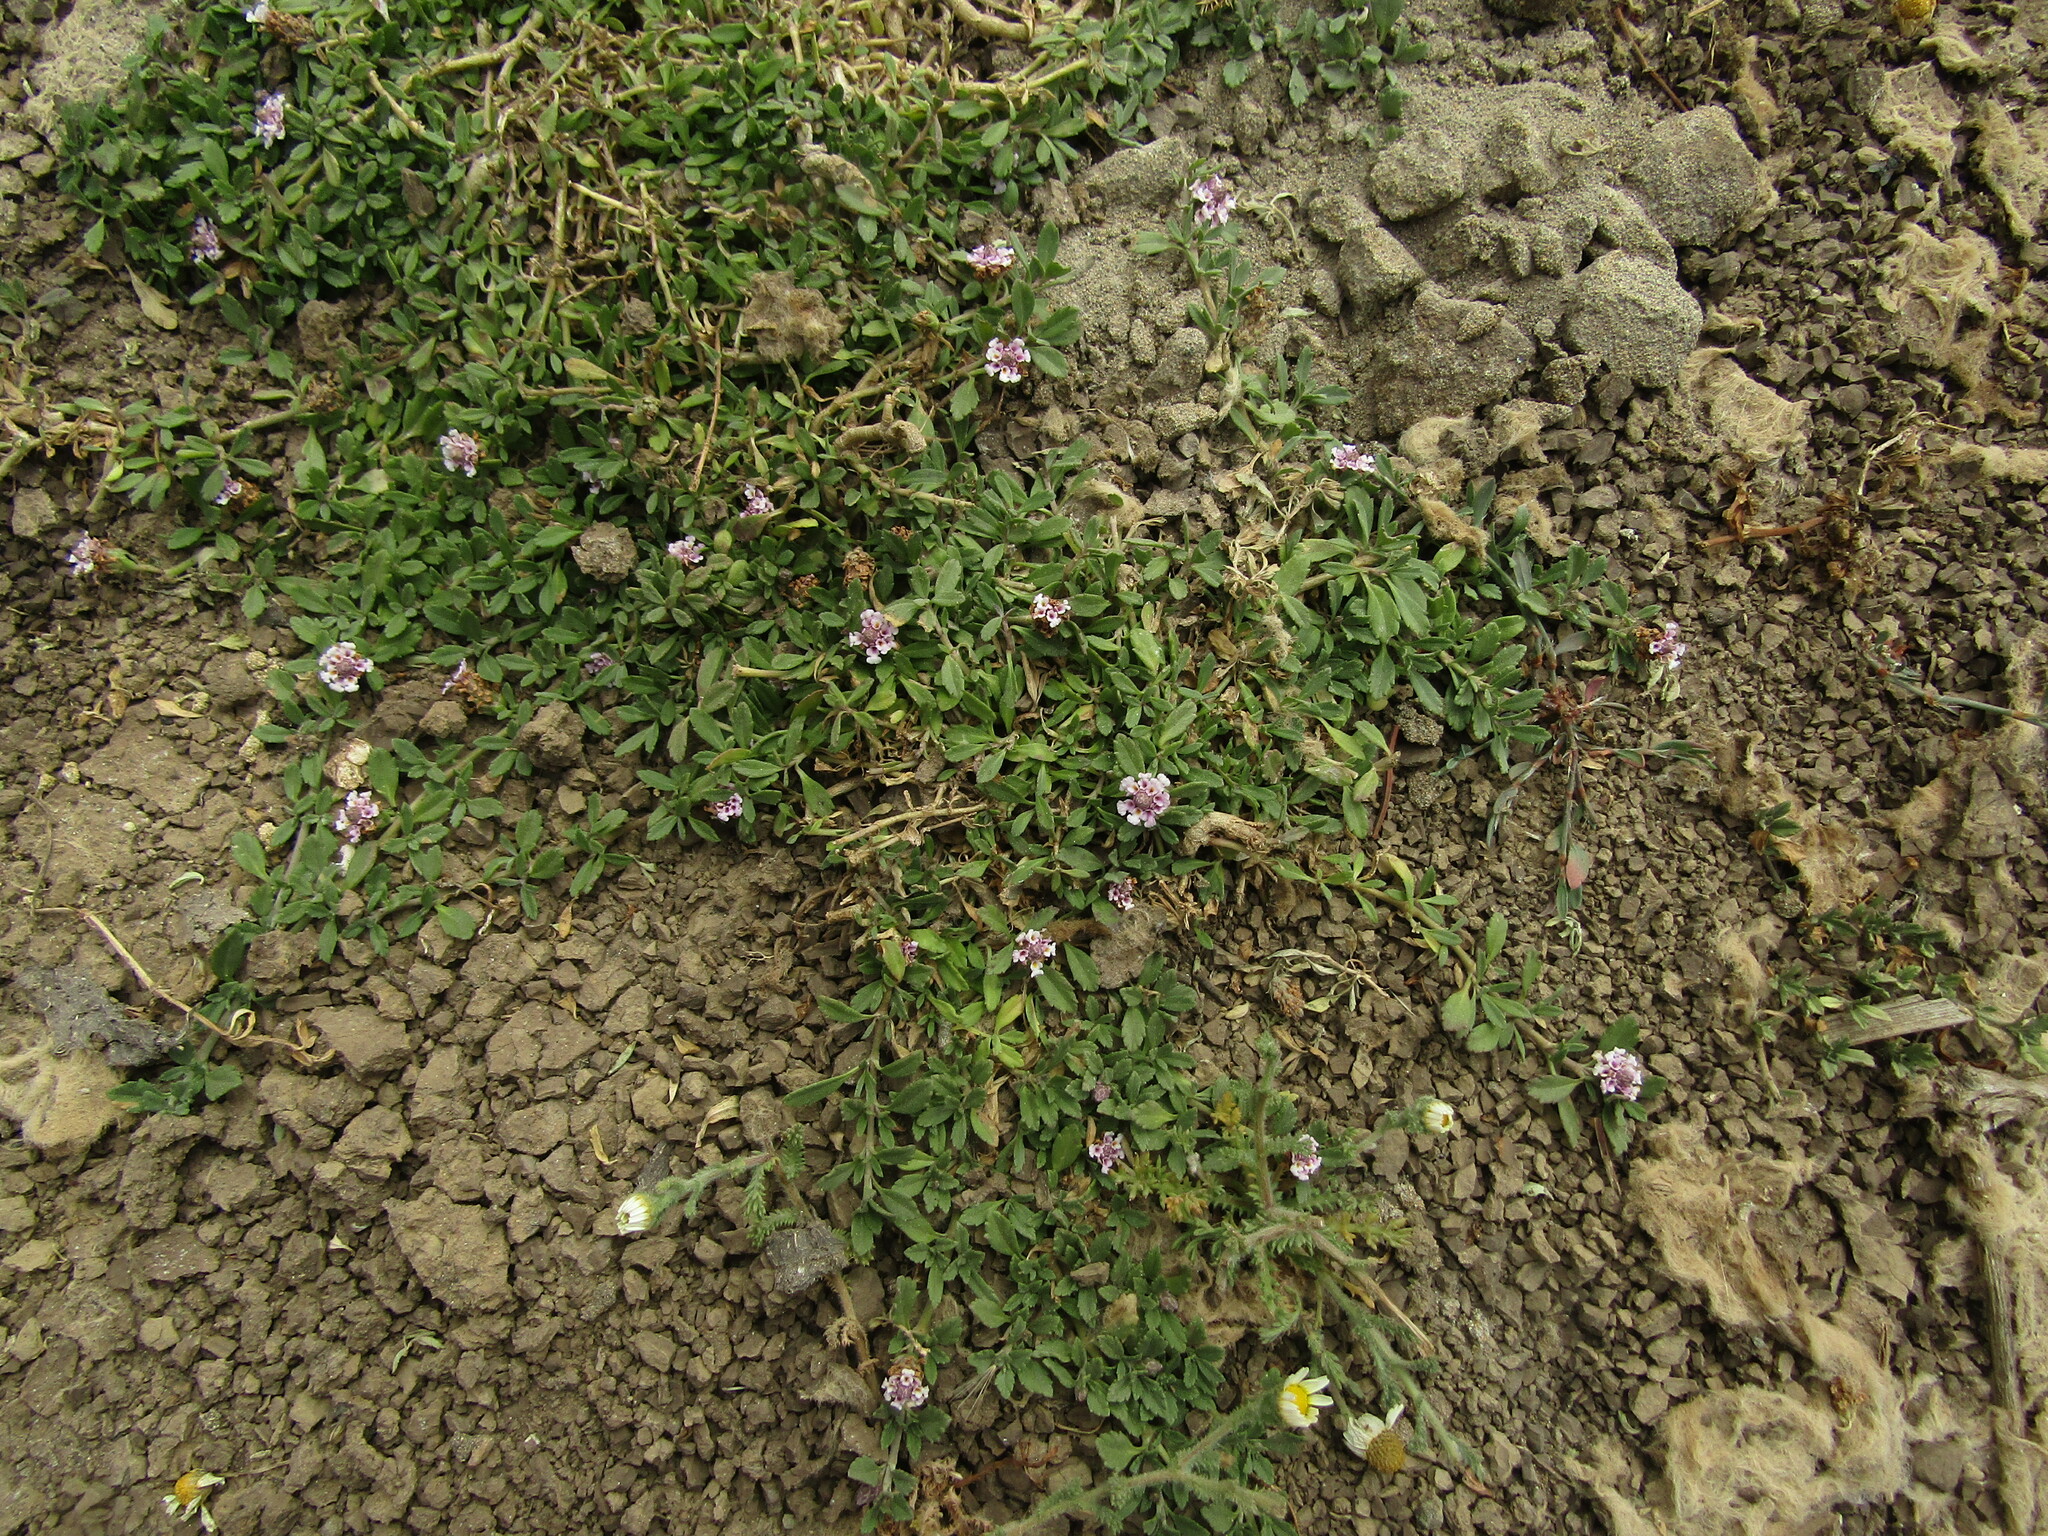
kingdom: Plantae
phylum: Tracheophyta
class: Magnoliopsida
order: Lamiales
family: Verbenaceae
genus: Phyla
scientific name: Phyla nodiflora
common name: Frogfruit
